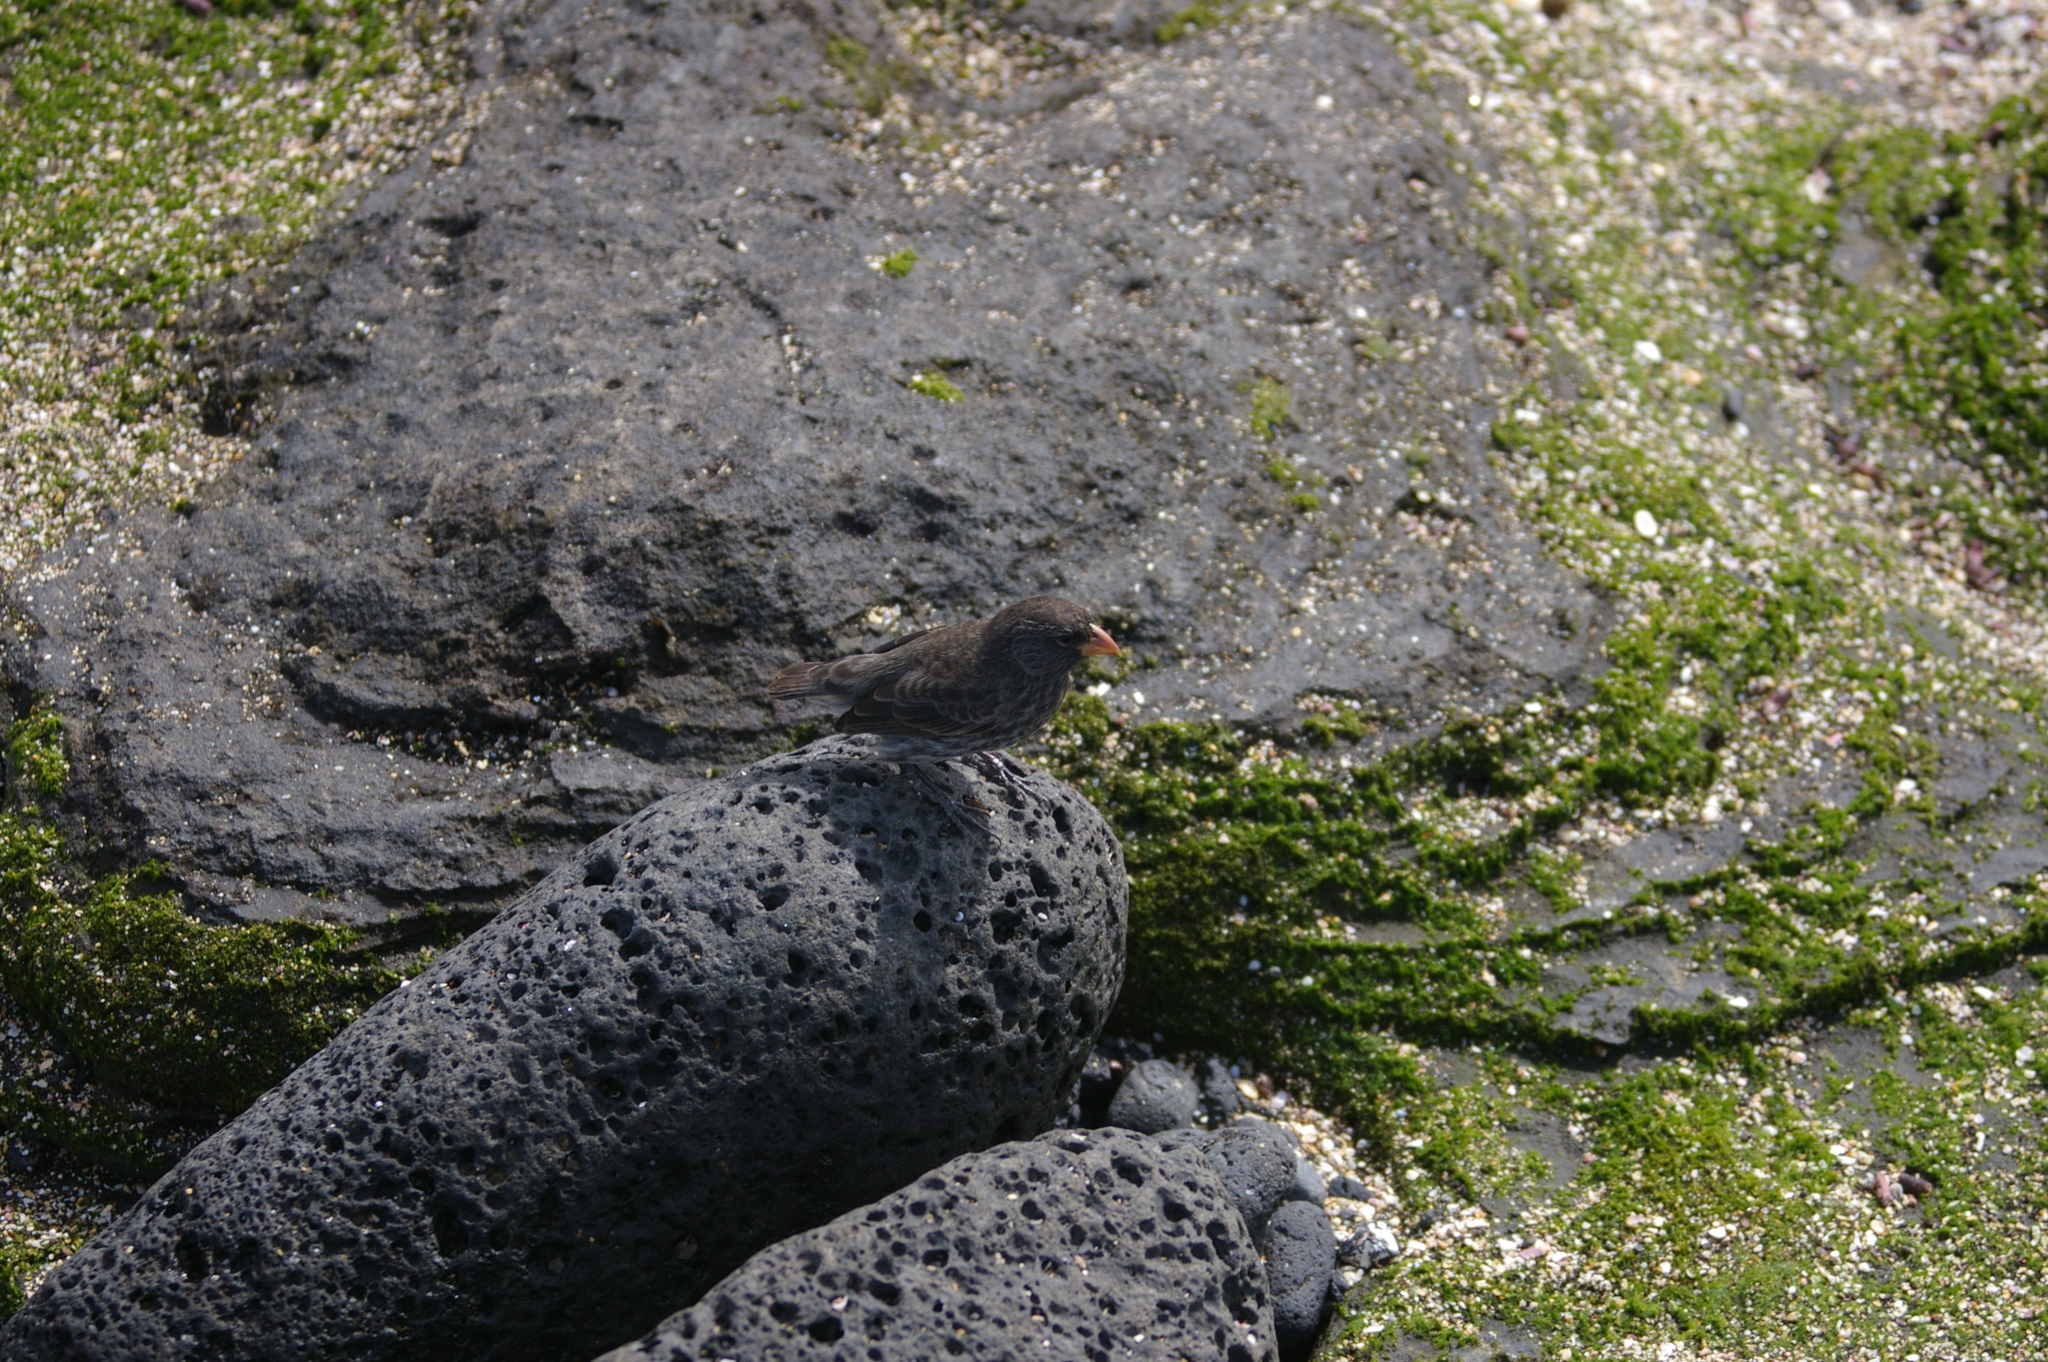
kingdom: Animalia
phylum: Chordata
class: Aves
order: Passeriformes
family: Thraupidae
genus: Geospiza
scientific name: Geospiza fuliginosa
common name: Small ground finch
